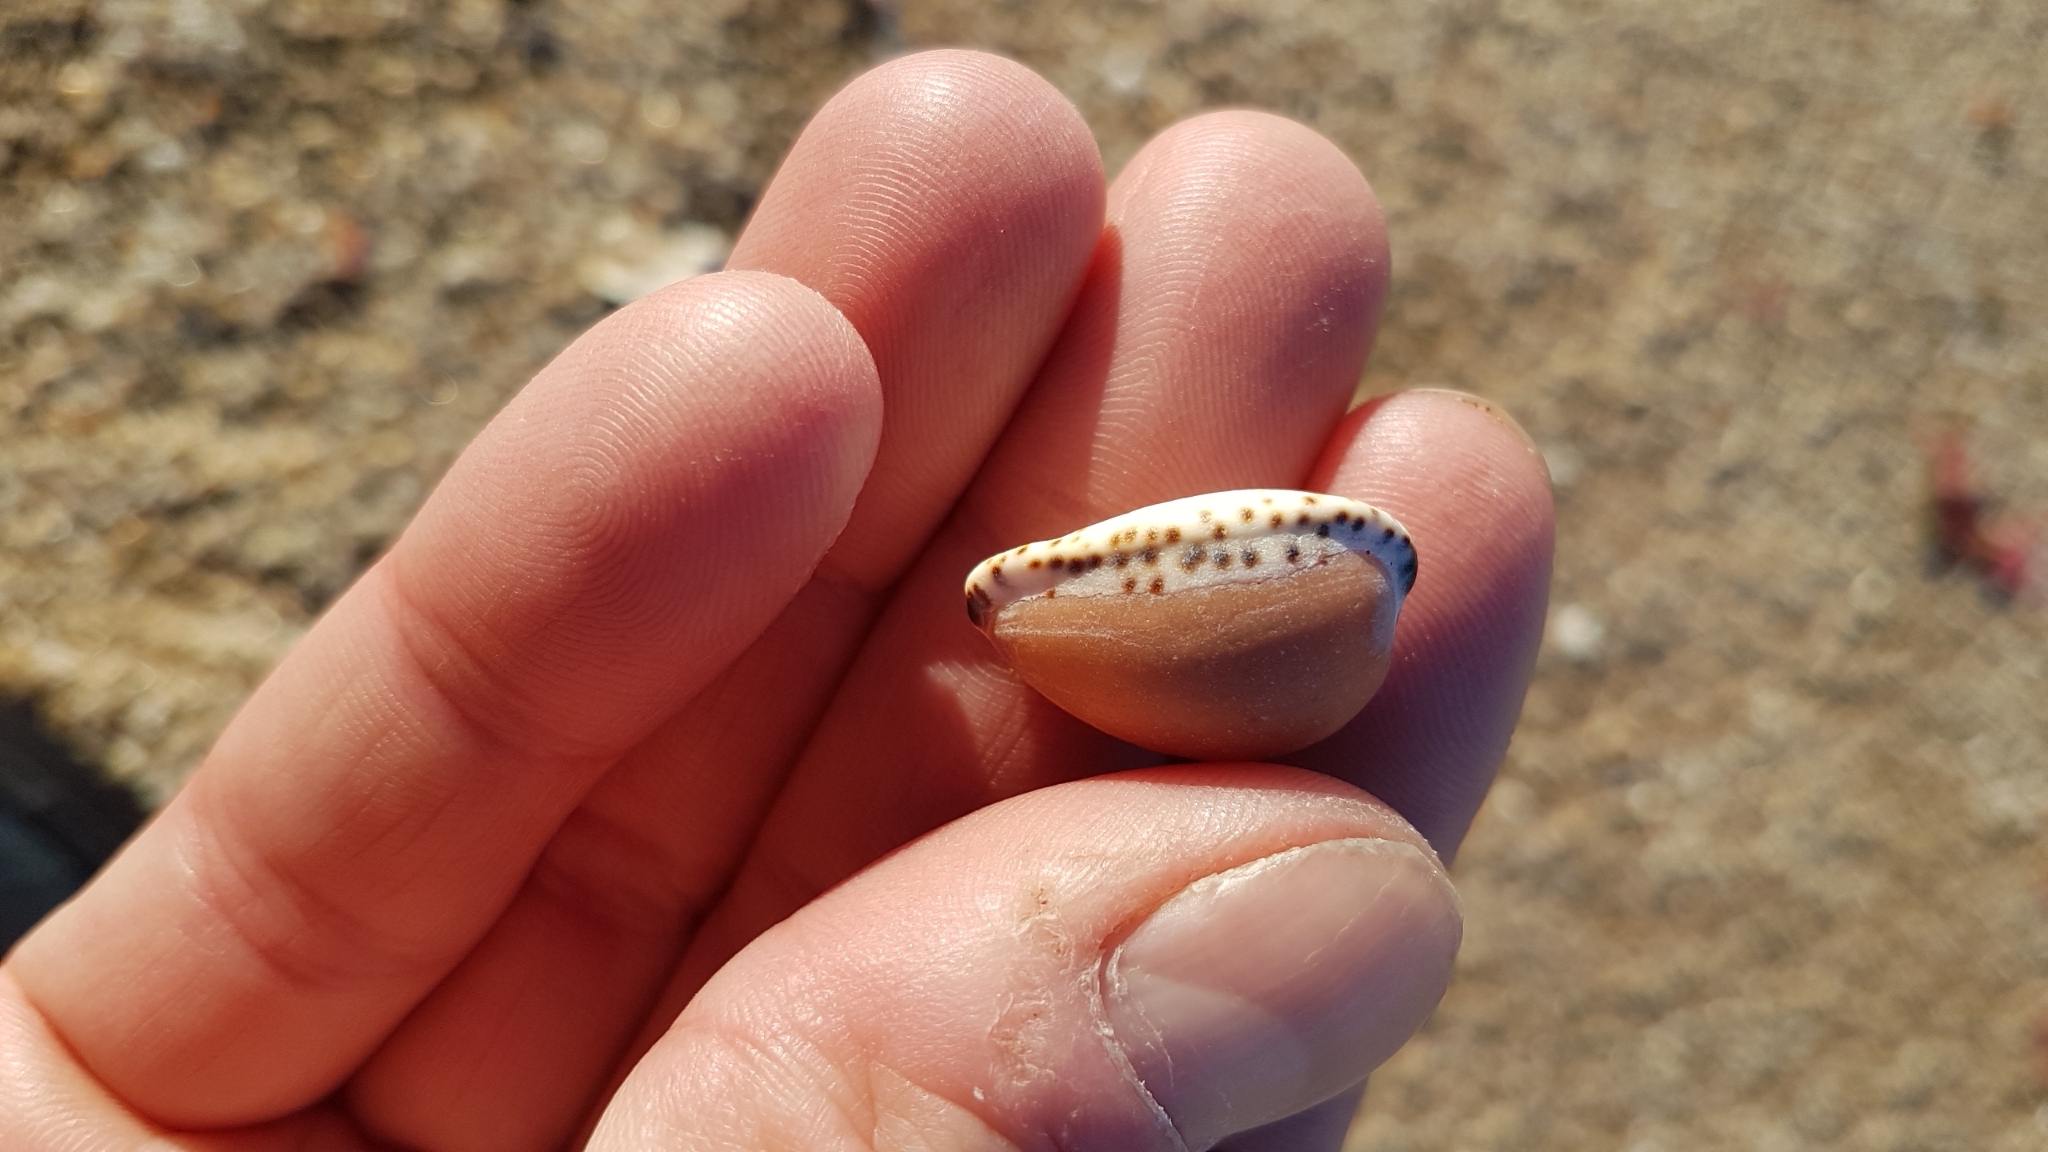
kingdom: Animalia
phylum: Mollusca
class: Gastropoda
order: Littorinimorpha
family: Cypraeidae
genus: Notocypraea
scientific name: Notocypraea angustata
